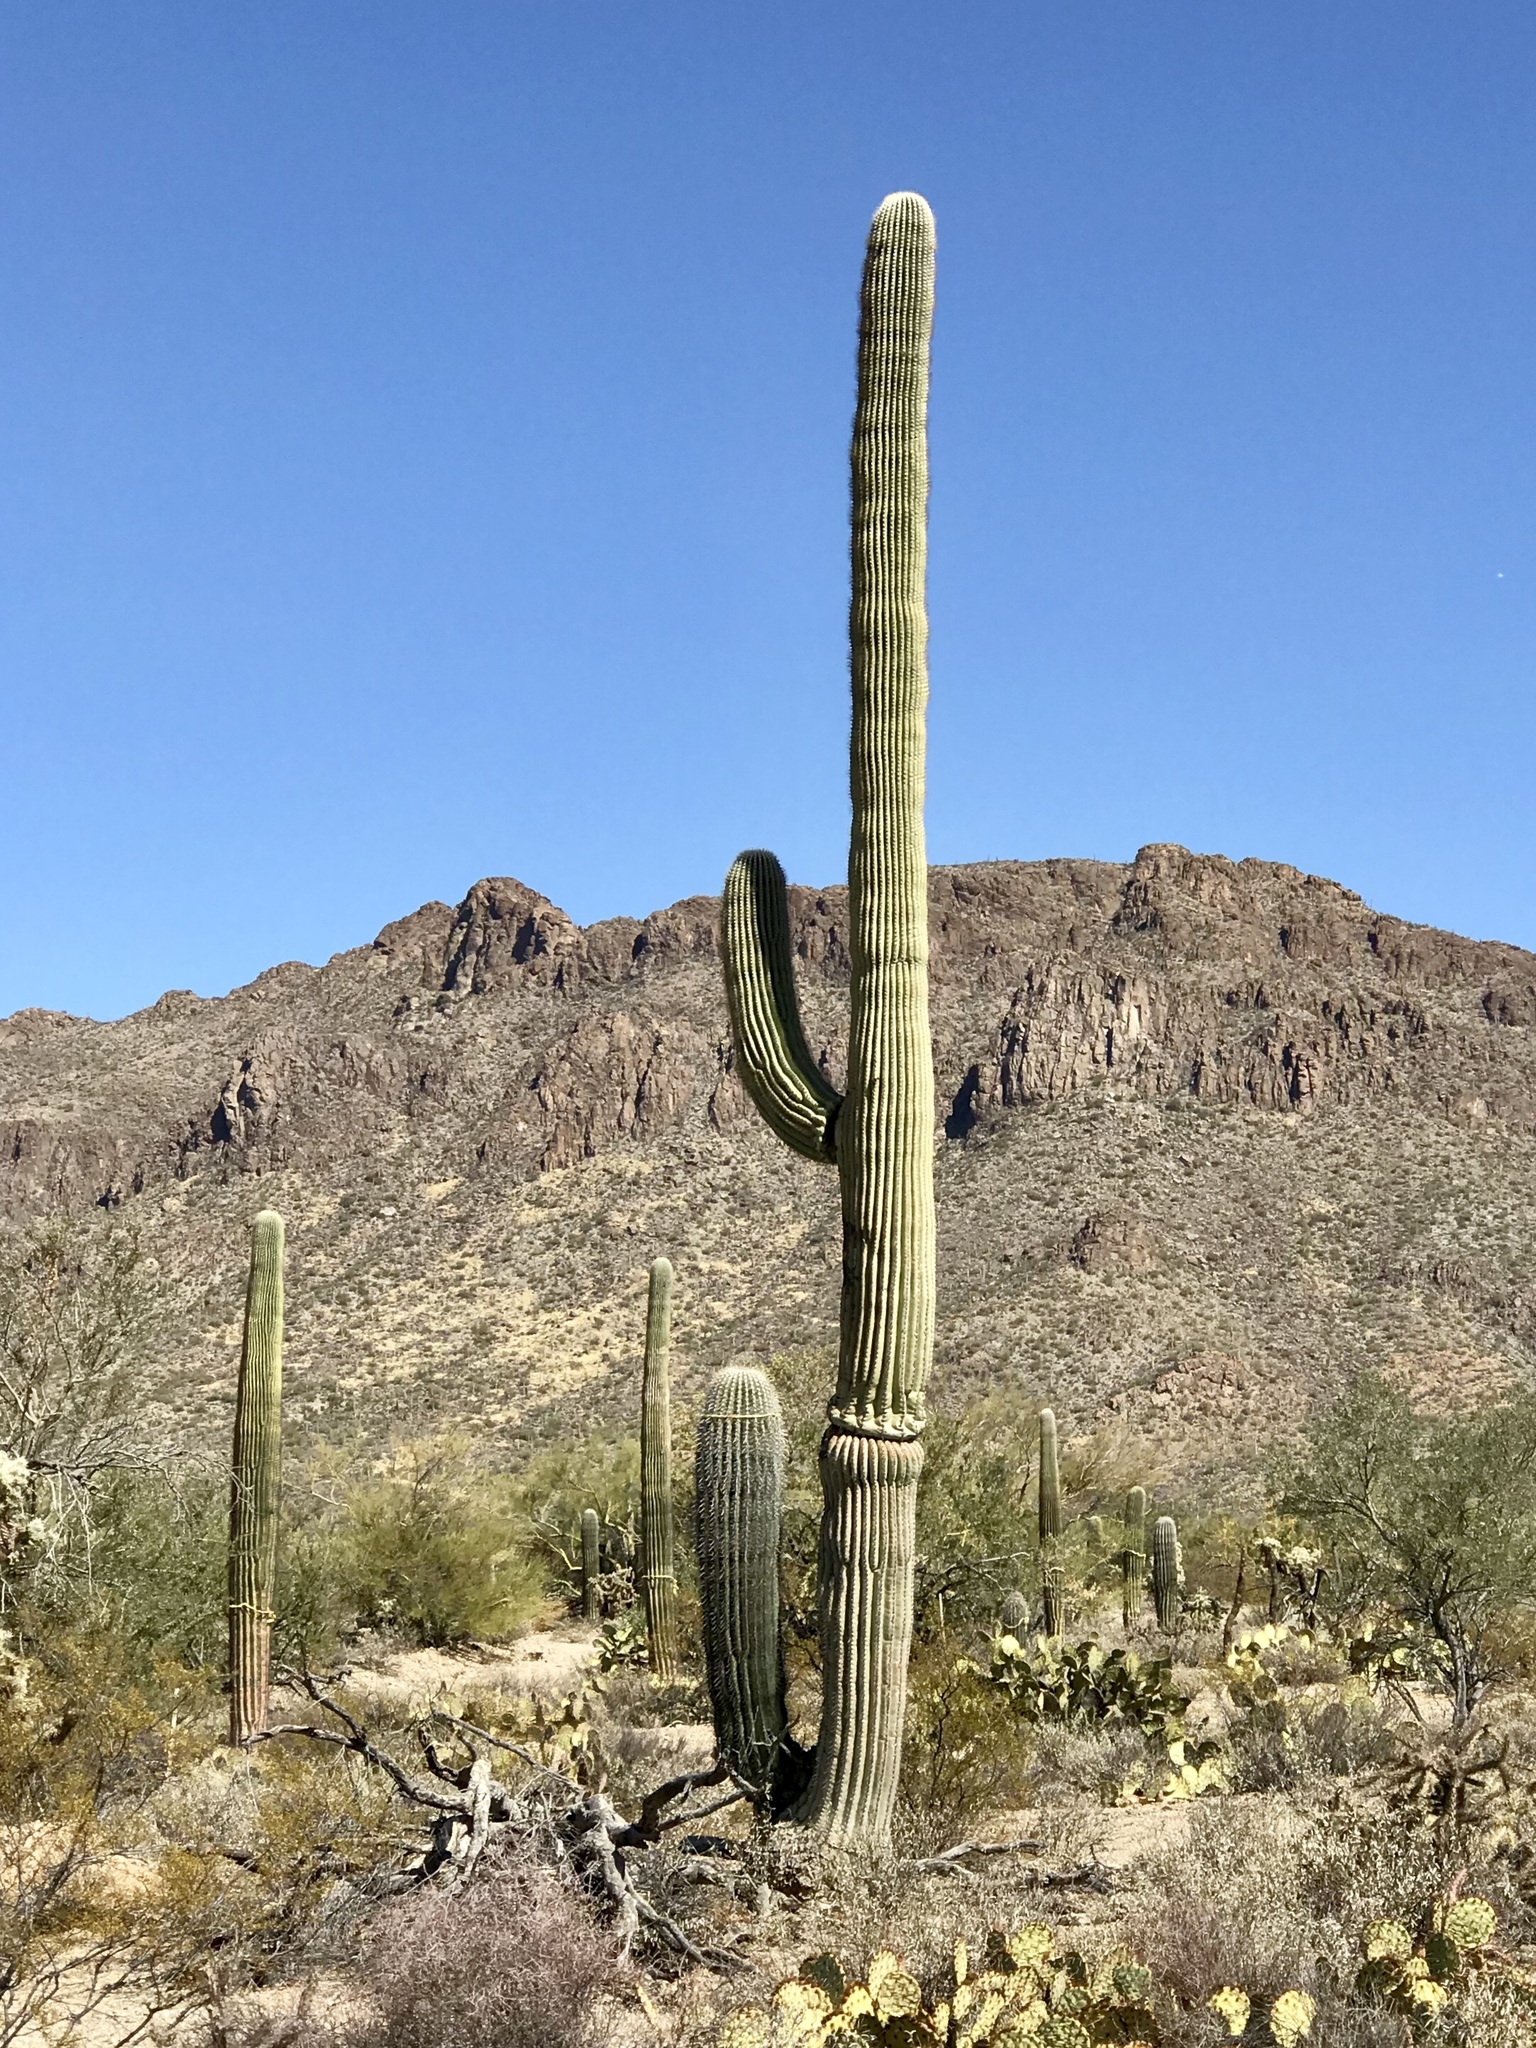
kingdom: Plantae
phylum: Tracheophyta
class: Magnoliopsida
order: Caryophyllales
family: Cactaceae
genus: Carnegiea
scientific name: Carnegiea gigantea
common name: Saguaro
